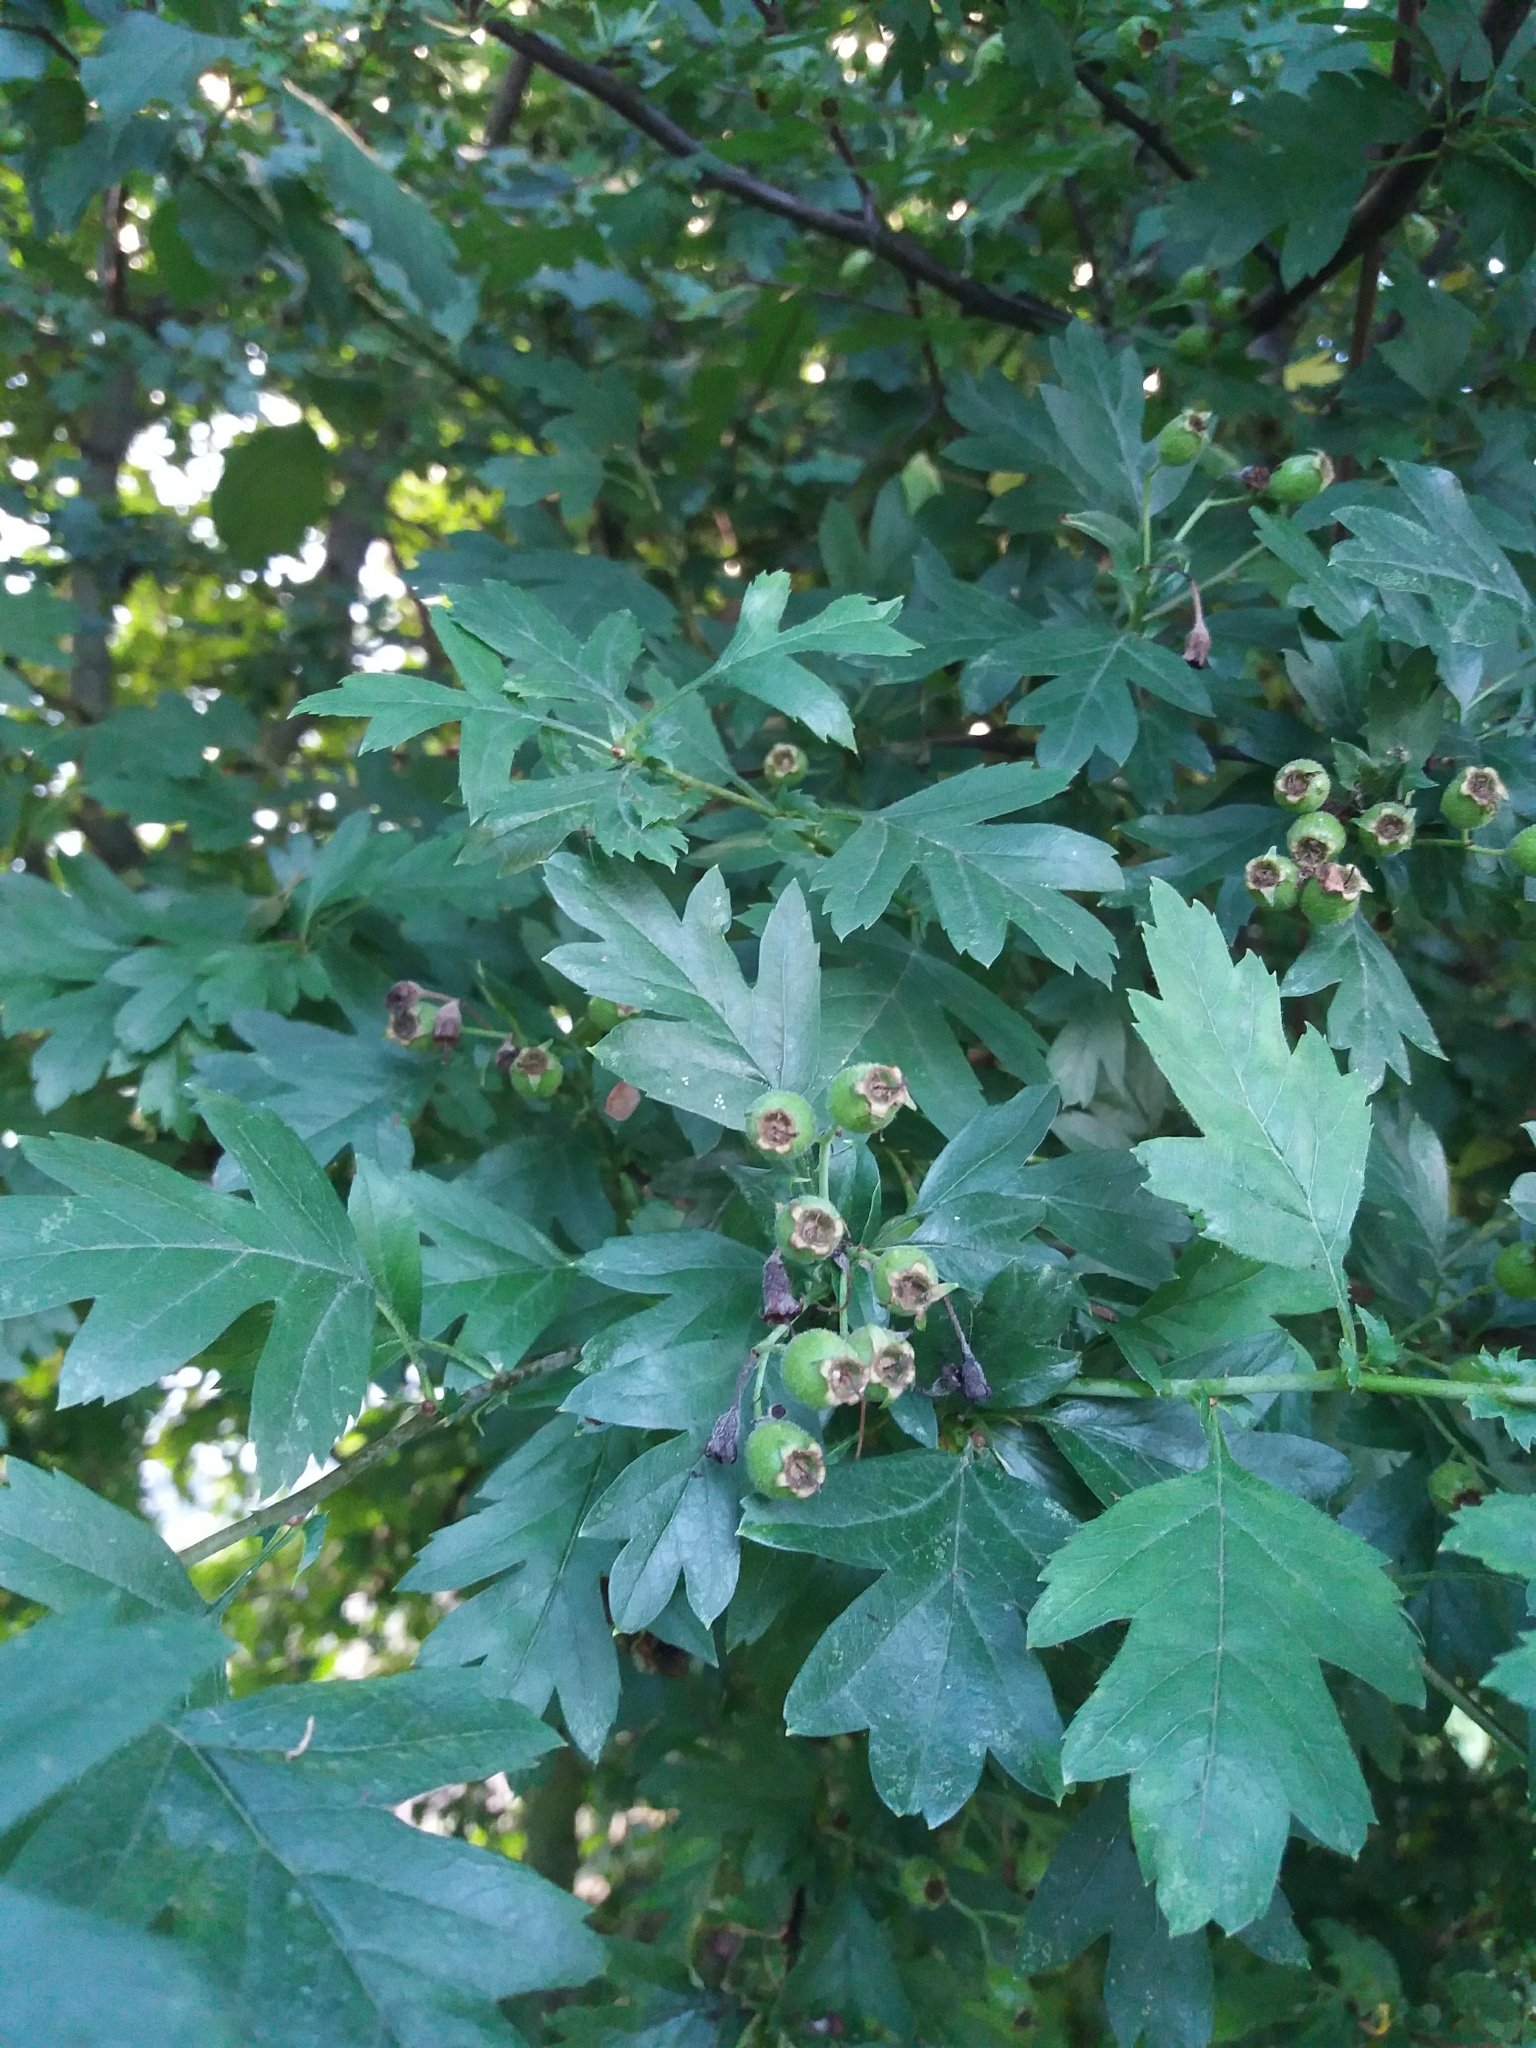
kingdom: Plantae
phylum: Tracheophyta
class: Magnoliopsida
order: Rosales
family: Rosaceae
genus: Crataegus
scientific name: Crataegus monogyna
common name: Hawthorn
